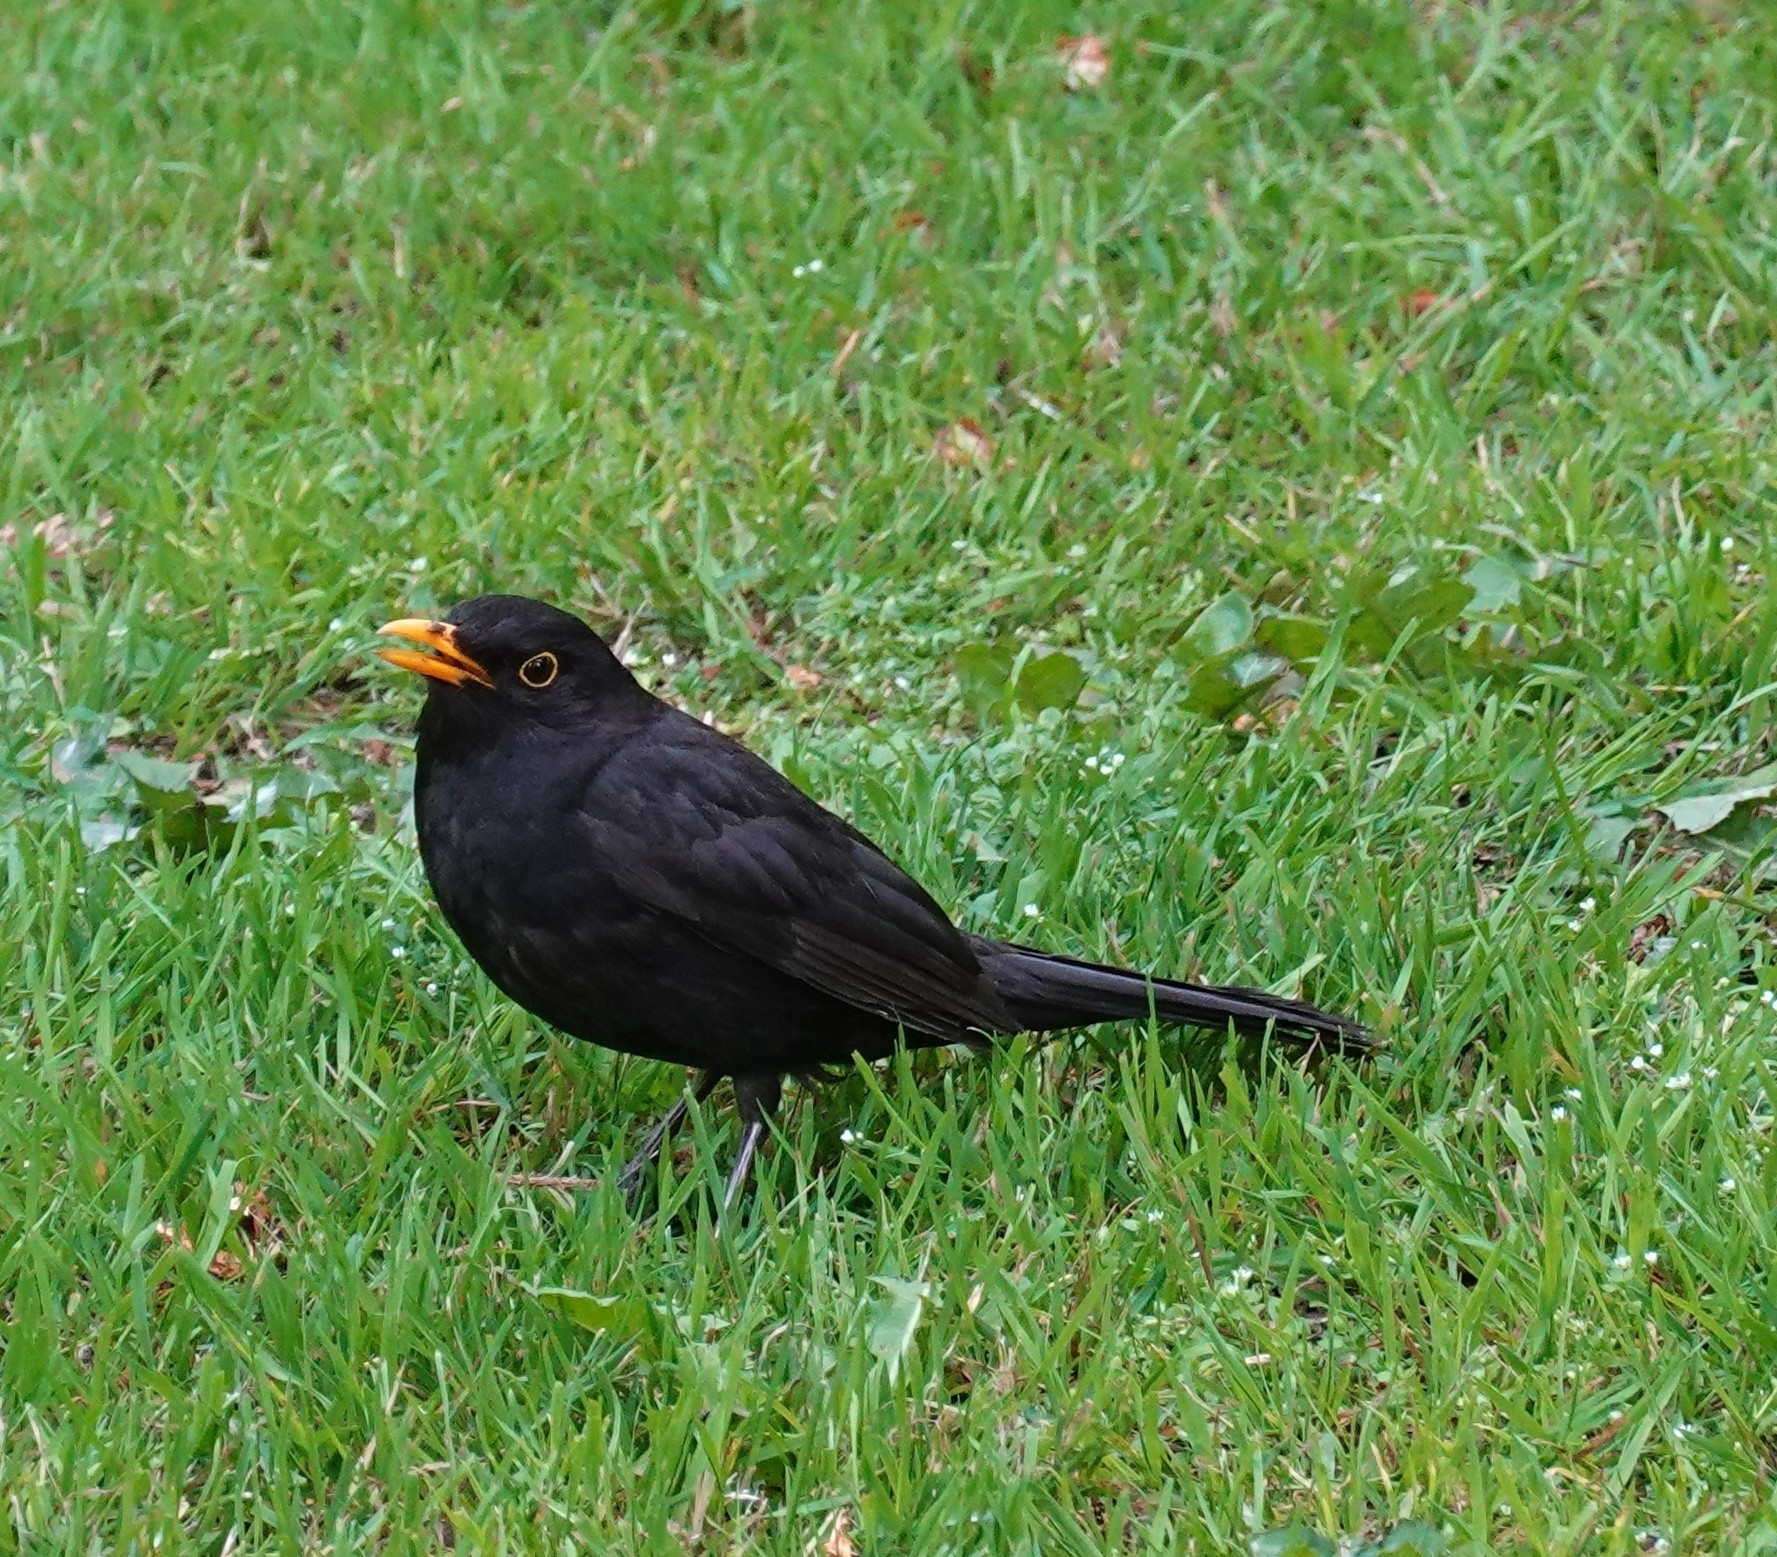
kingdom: Animalia
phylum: Chordata
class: Aves
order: Passeriformes
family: Turdidae
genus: Turdus
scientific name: Turdus merula
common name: Common blackbird
